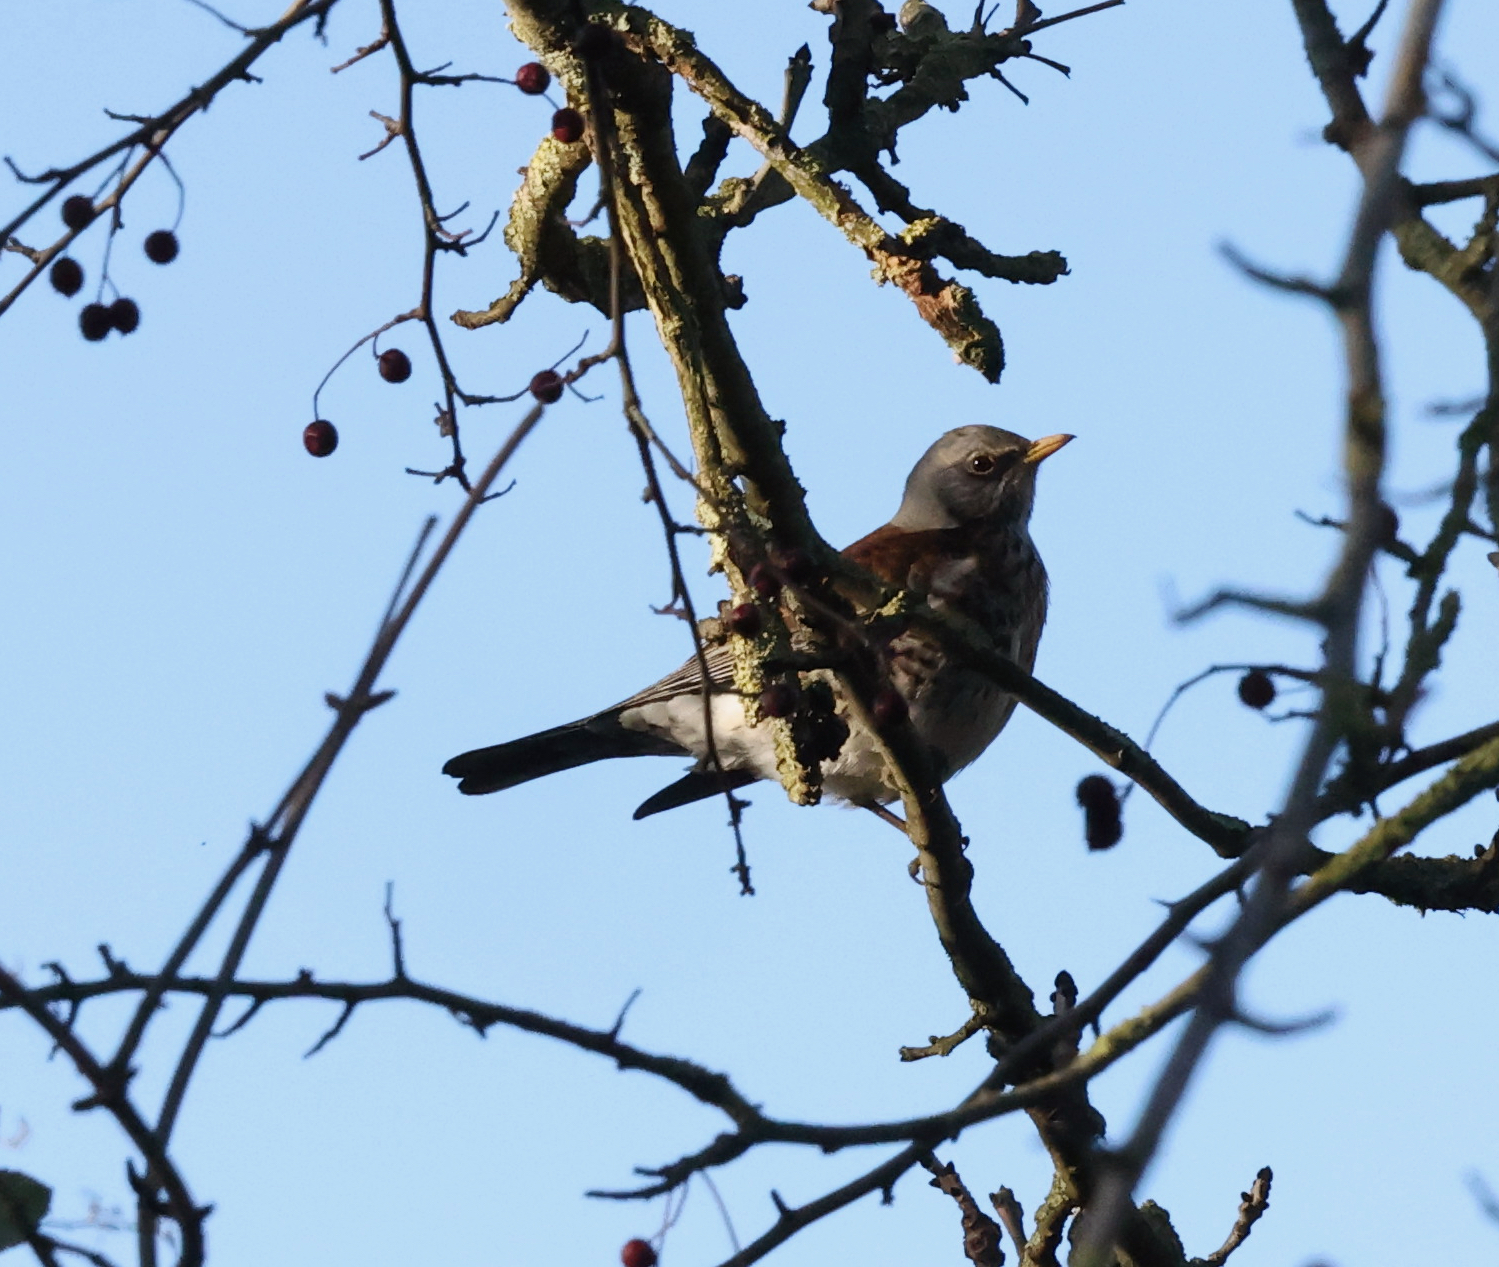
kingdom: Animalia
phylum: Chordata
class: Aves
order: Passeriformes
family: Turdidae
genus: Turdus
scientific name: Turdus pilaris
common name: Fieldfare
